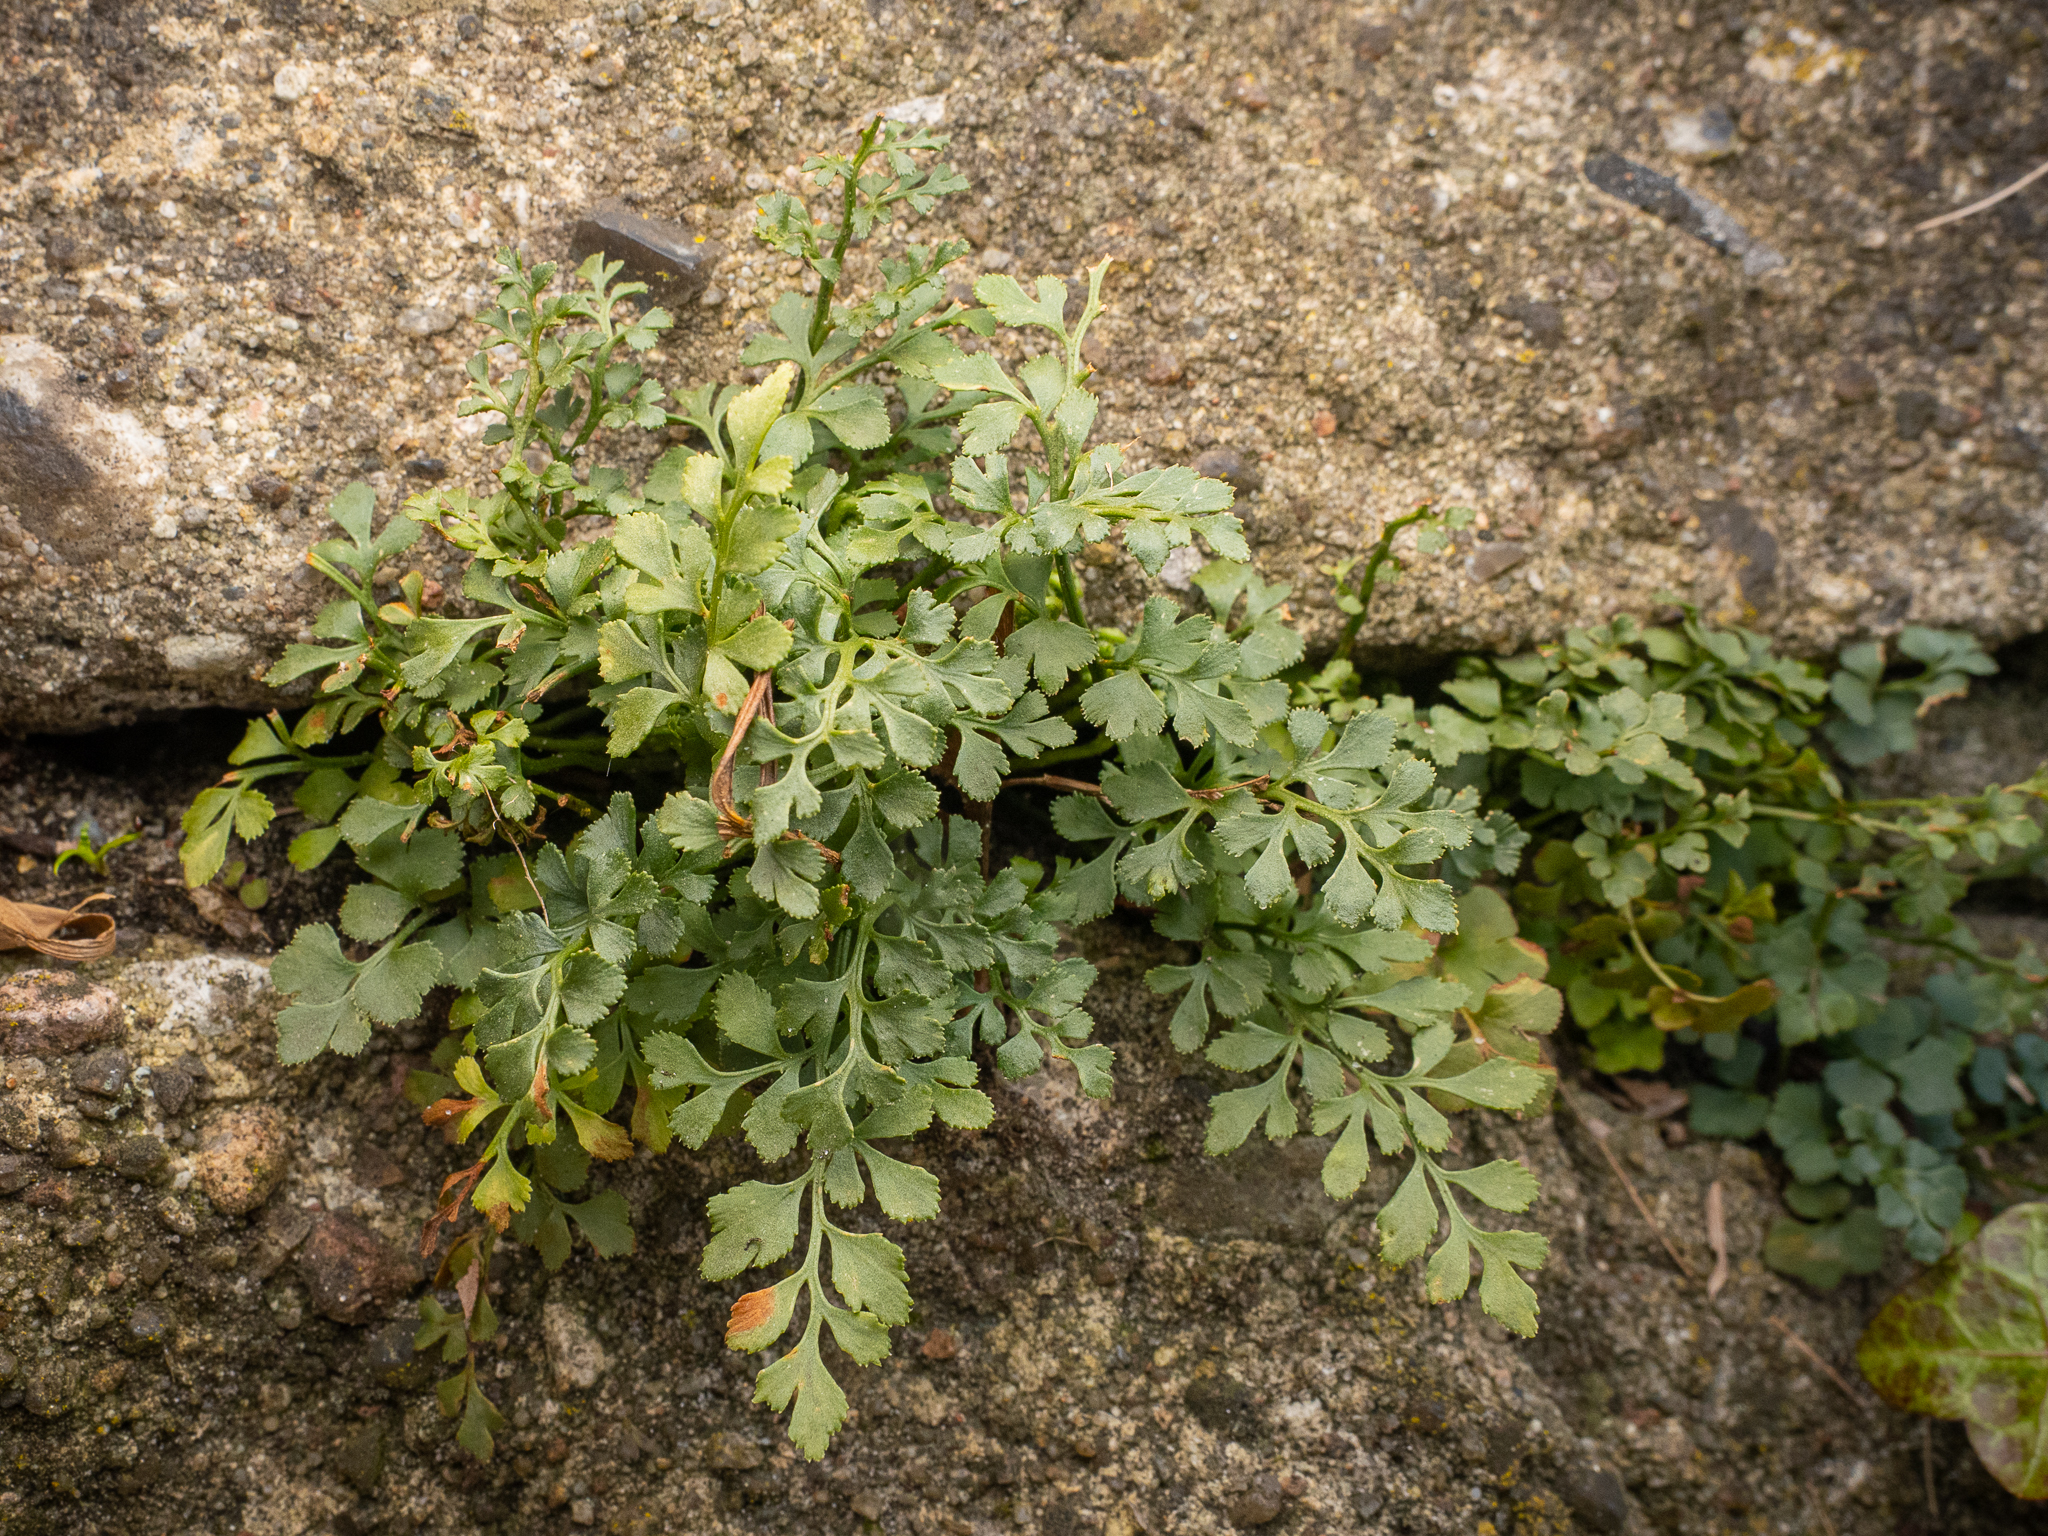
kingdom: Plantae
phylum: Tracheophyta
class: Polypodiopsida
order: Polypodiales
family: Aspleniaceae
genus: Asplenium
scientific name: Asplenium ruta-muraria
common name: Wall-rue
